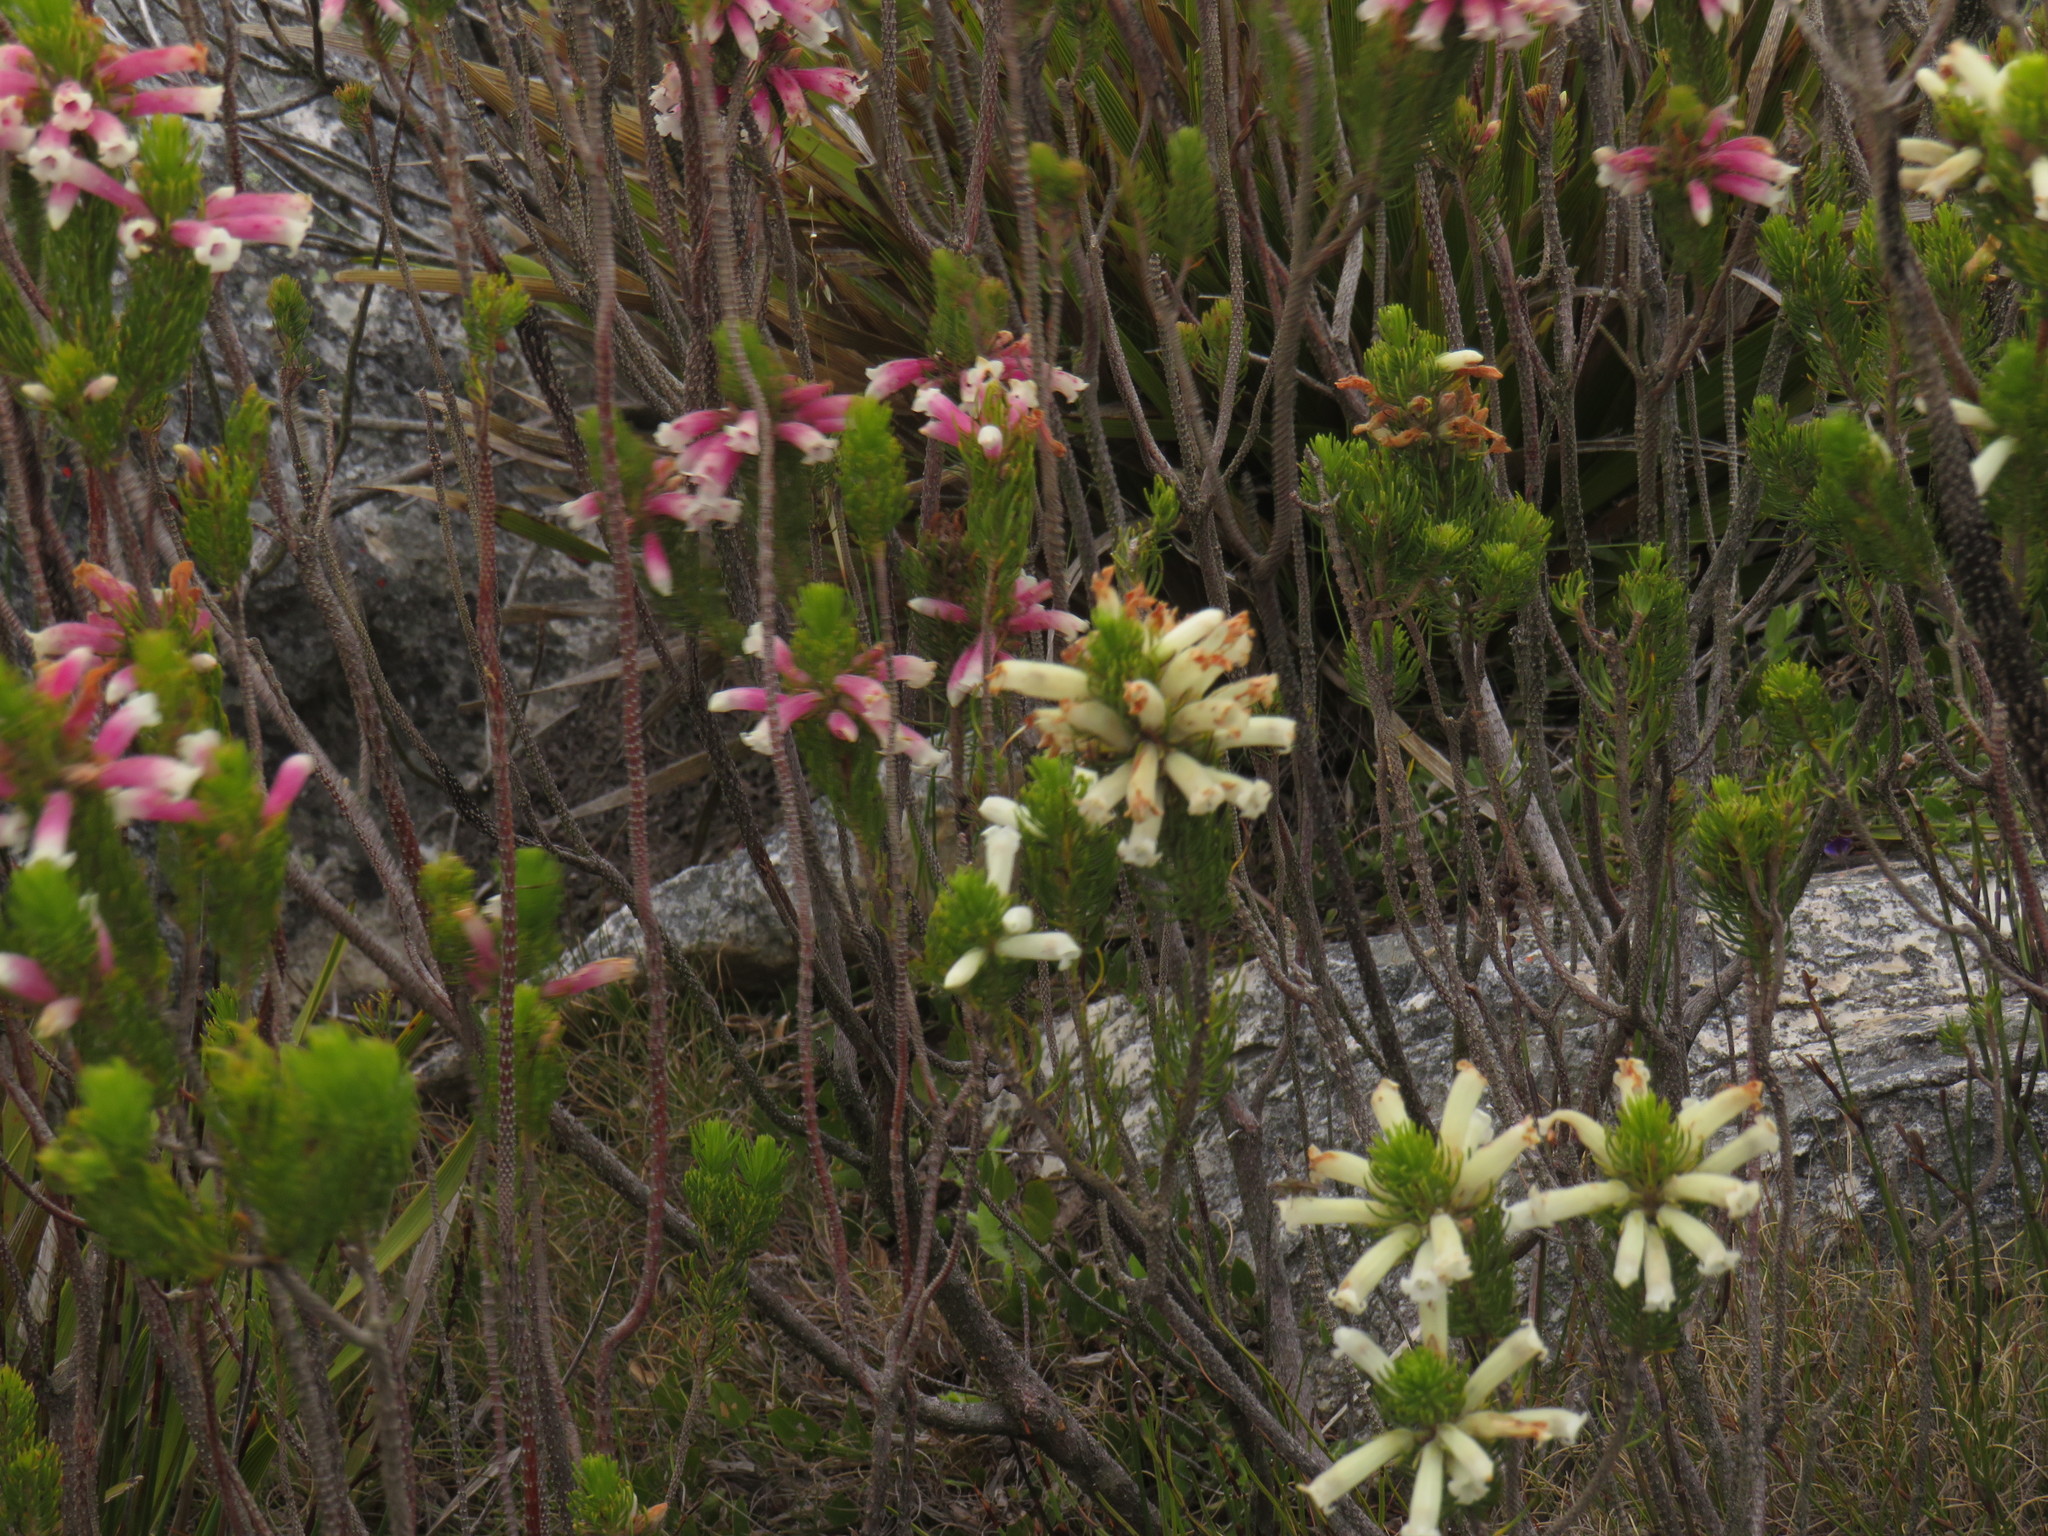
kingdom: Plantae
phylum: Tracheophyta
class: Magnoliopsida
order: Ericales
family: Ericaceae
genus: Erica
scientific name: Erica viscaria
